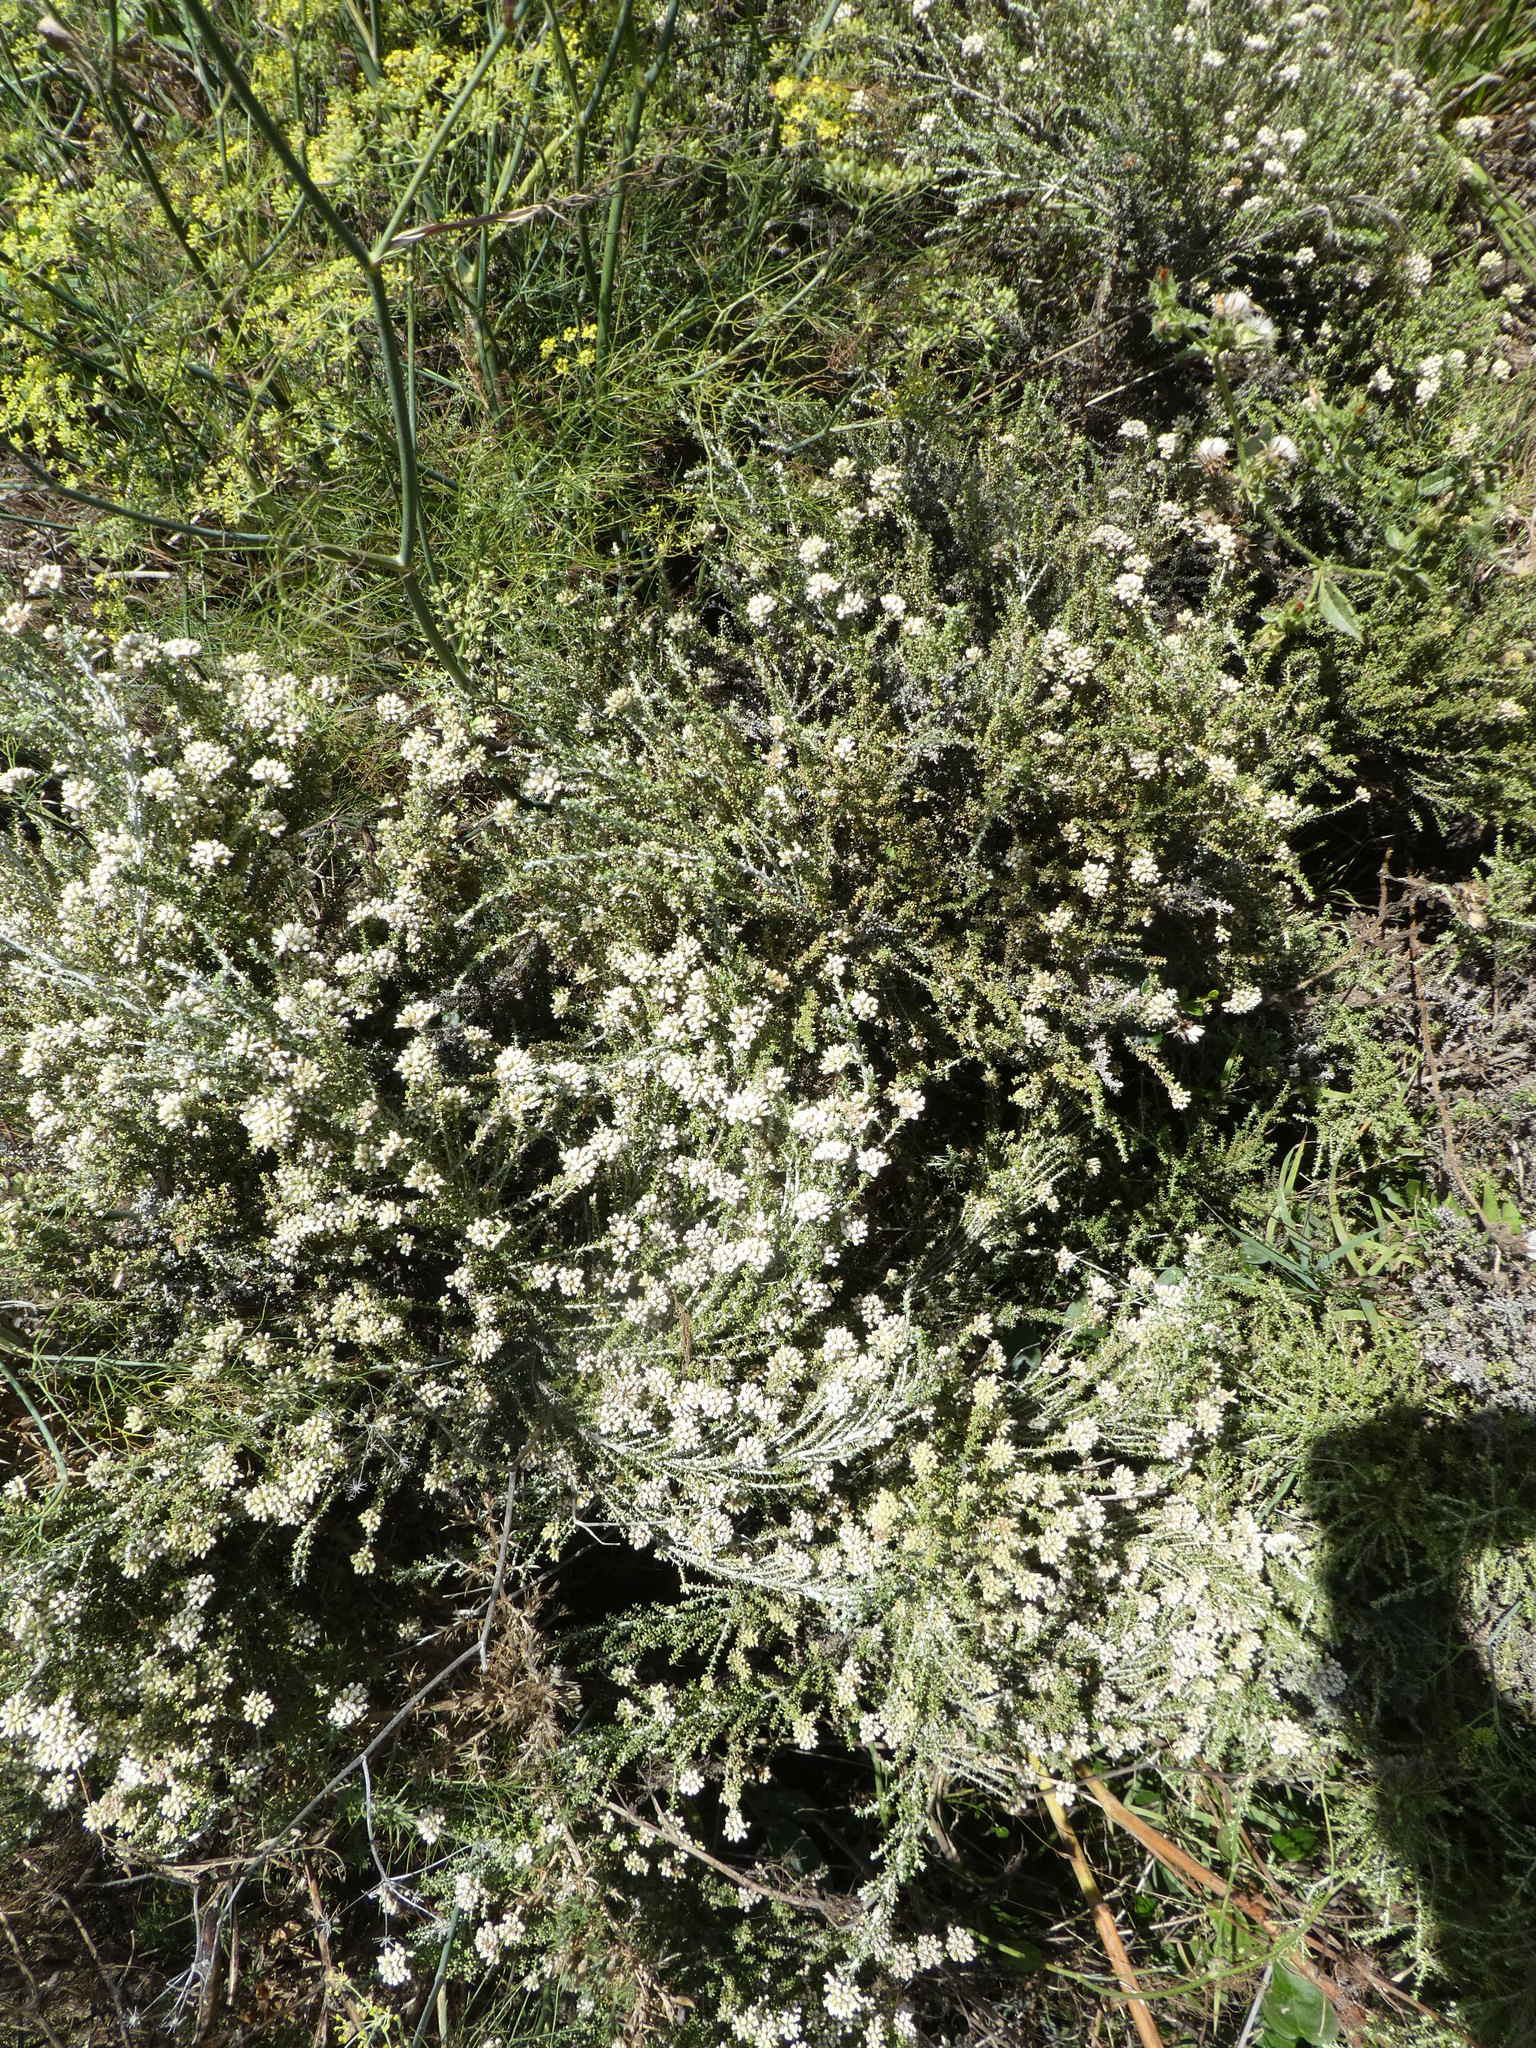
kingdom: Plantae
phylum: Tracheophyta
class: Magnoliopsida
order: Asterales
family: Asteraceae
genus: Ozothamnus
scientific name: Ozothamnus leptophyllus
